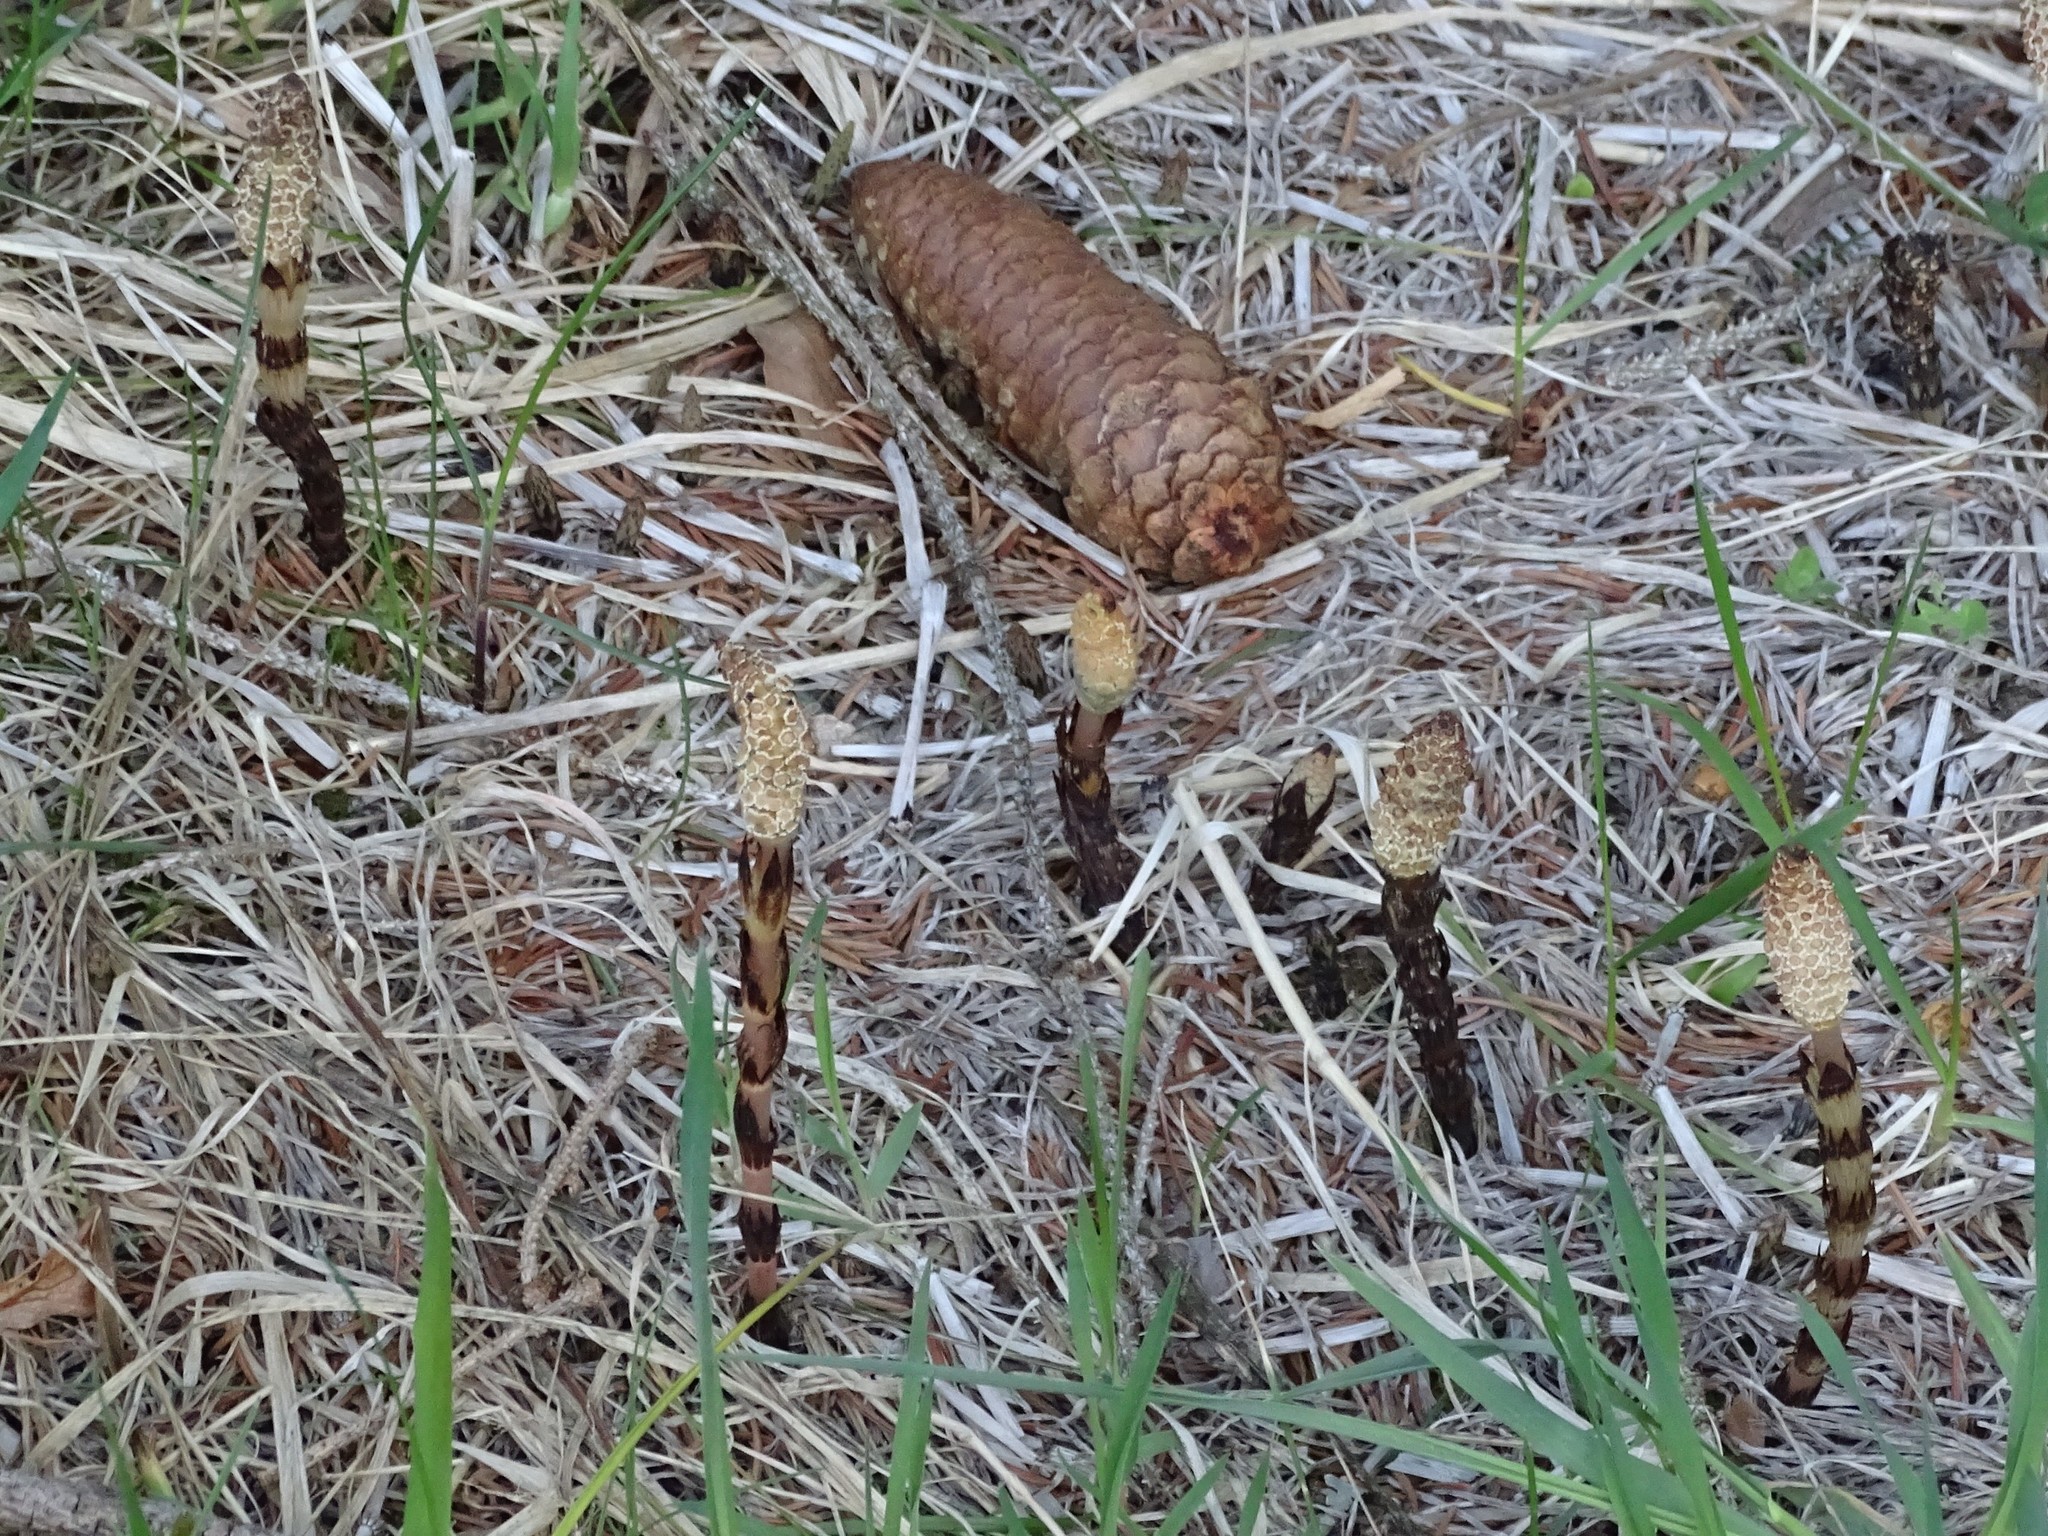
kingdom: Plantae
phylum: Tracheophyta
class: Polypodiopsida
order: Equisetales
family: Equisetaceae
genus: Equisetum
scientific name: Equisetum arvense
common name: Field horsetail
